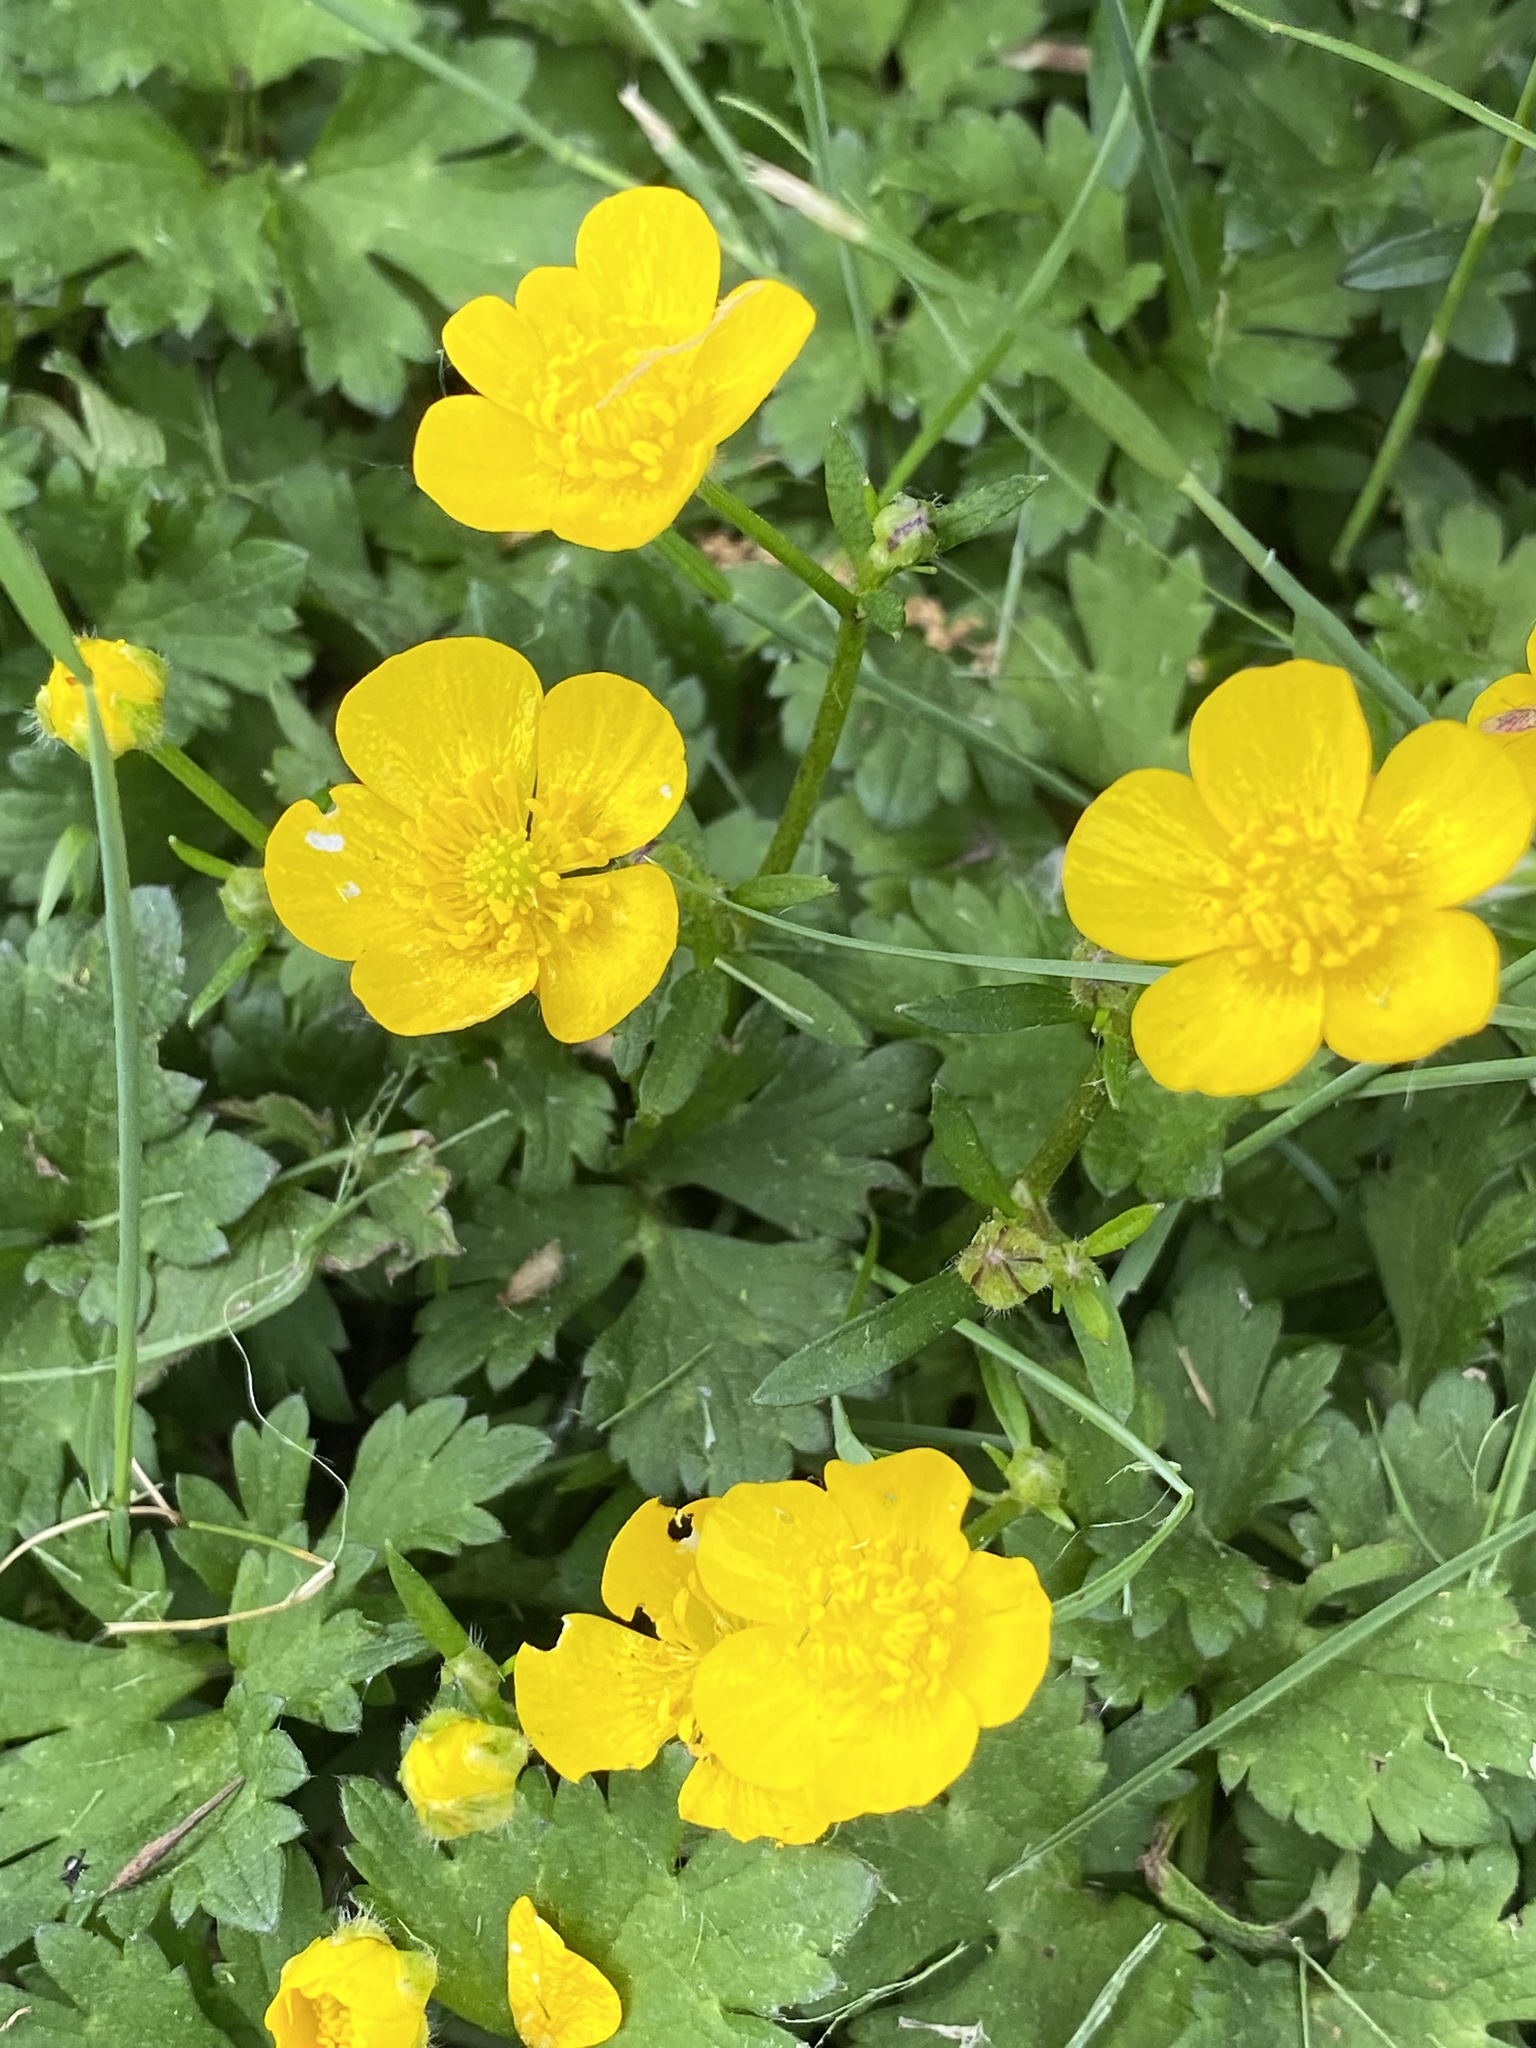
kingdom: Plantae
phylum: Tracheophyta
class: Magnoliopsida
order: Ranunculales
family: Ranunculaceae
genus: Ranunculus
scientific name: Ranunculus repens
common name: Creeping buttercup
